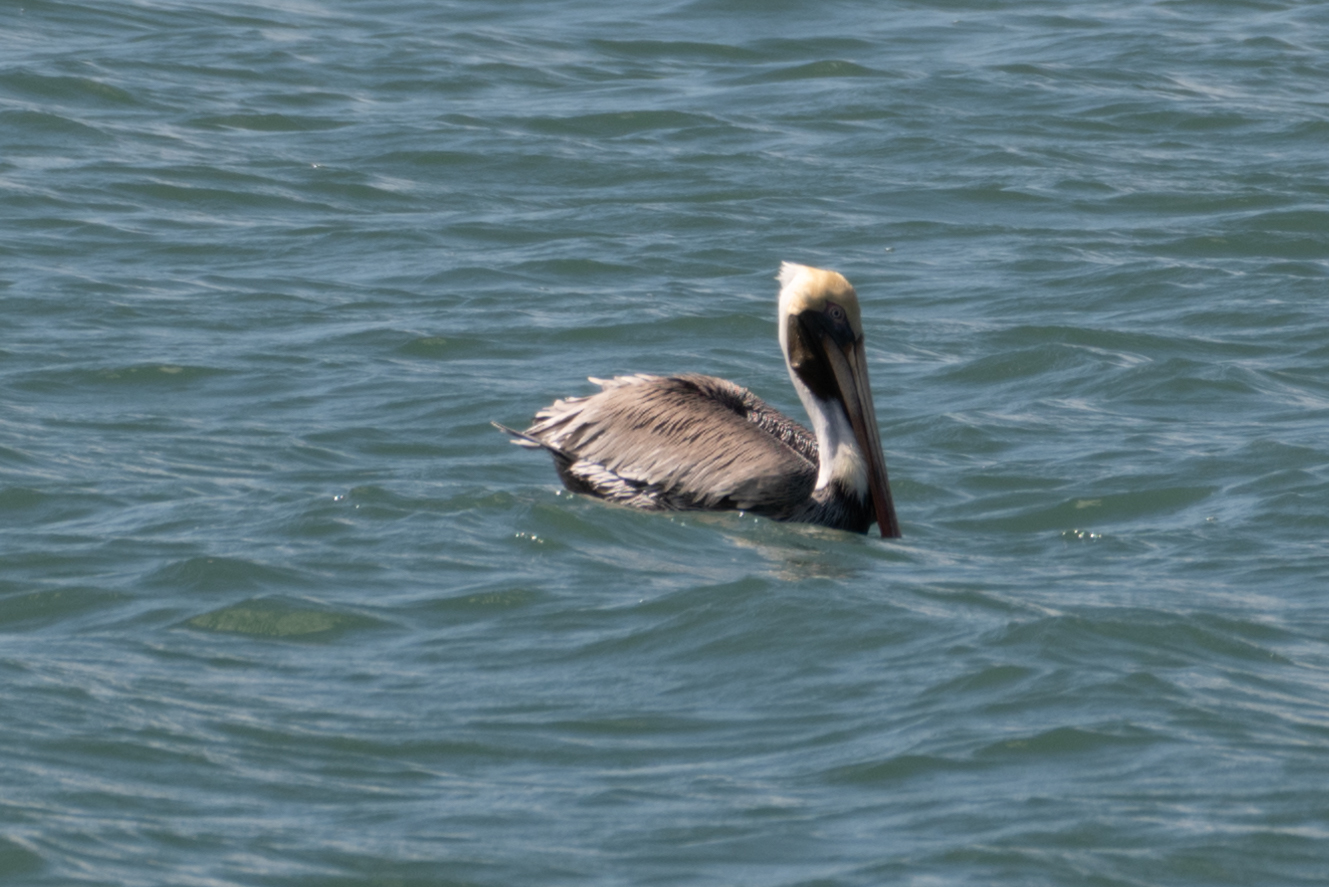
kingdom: Animalia
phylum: Chordata
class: Aves
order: Pelecaniformes
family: Pelecanidae
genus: Pelecanus
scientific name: Pelecanus occidentalis
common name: Brown pelican
